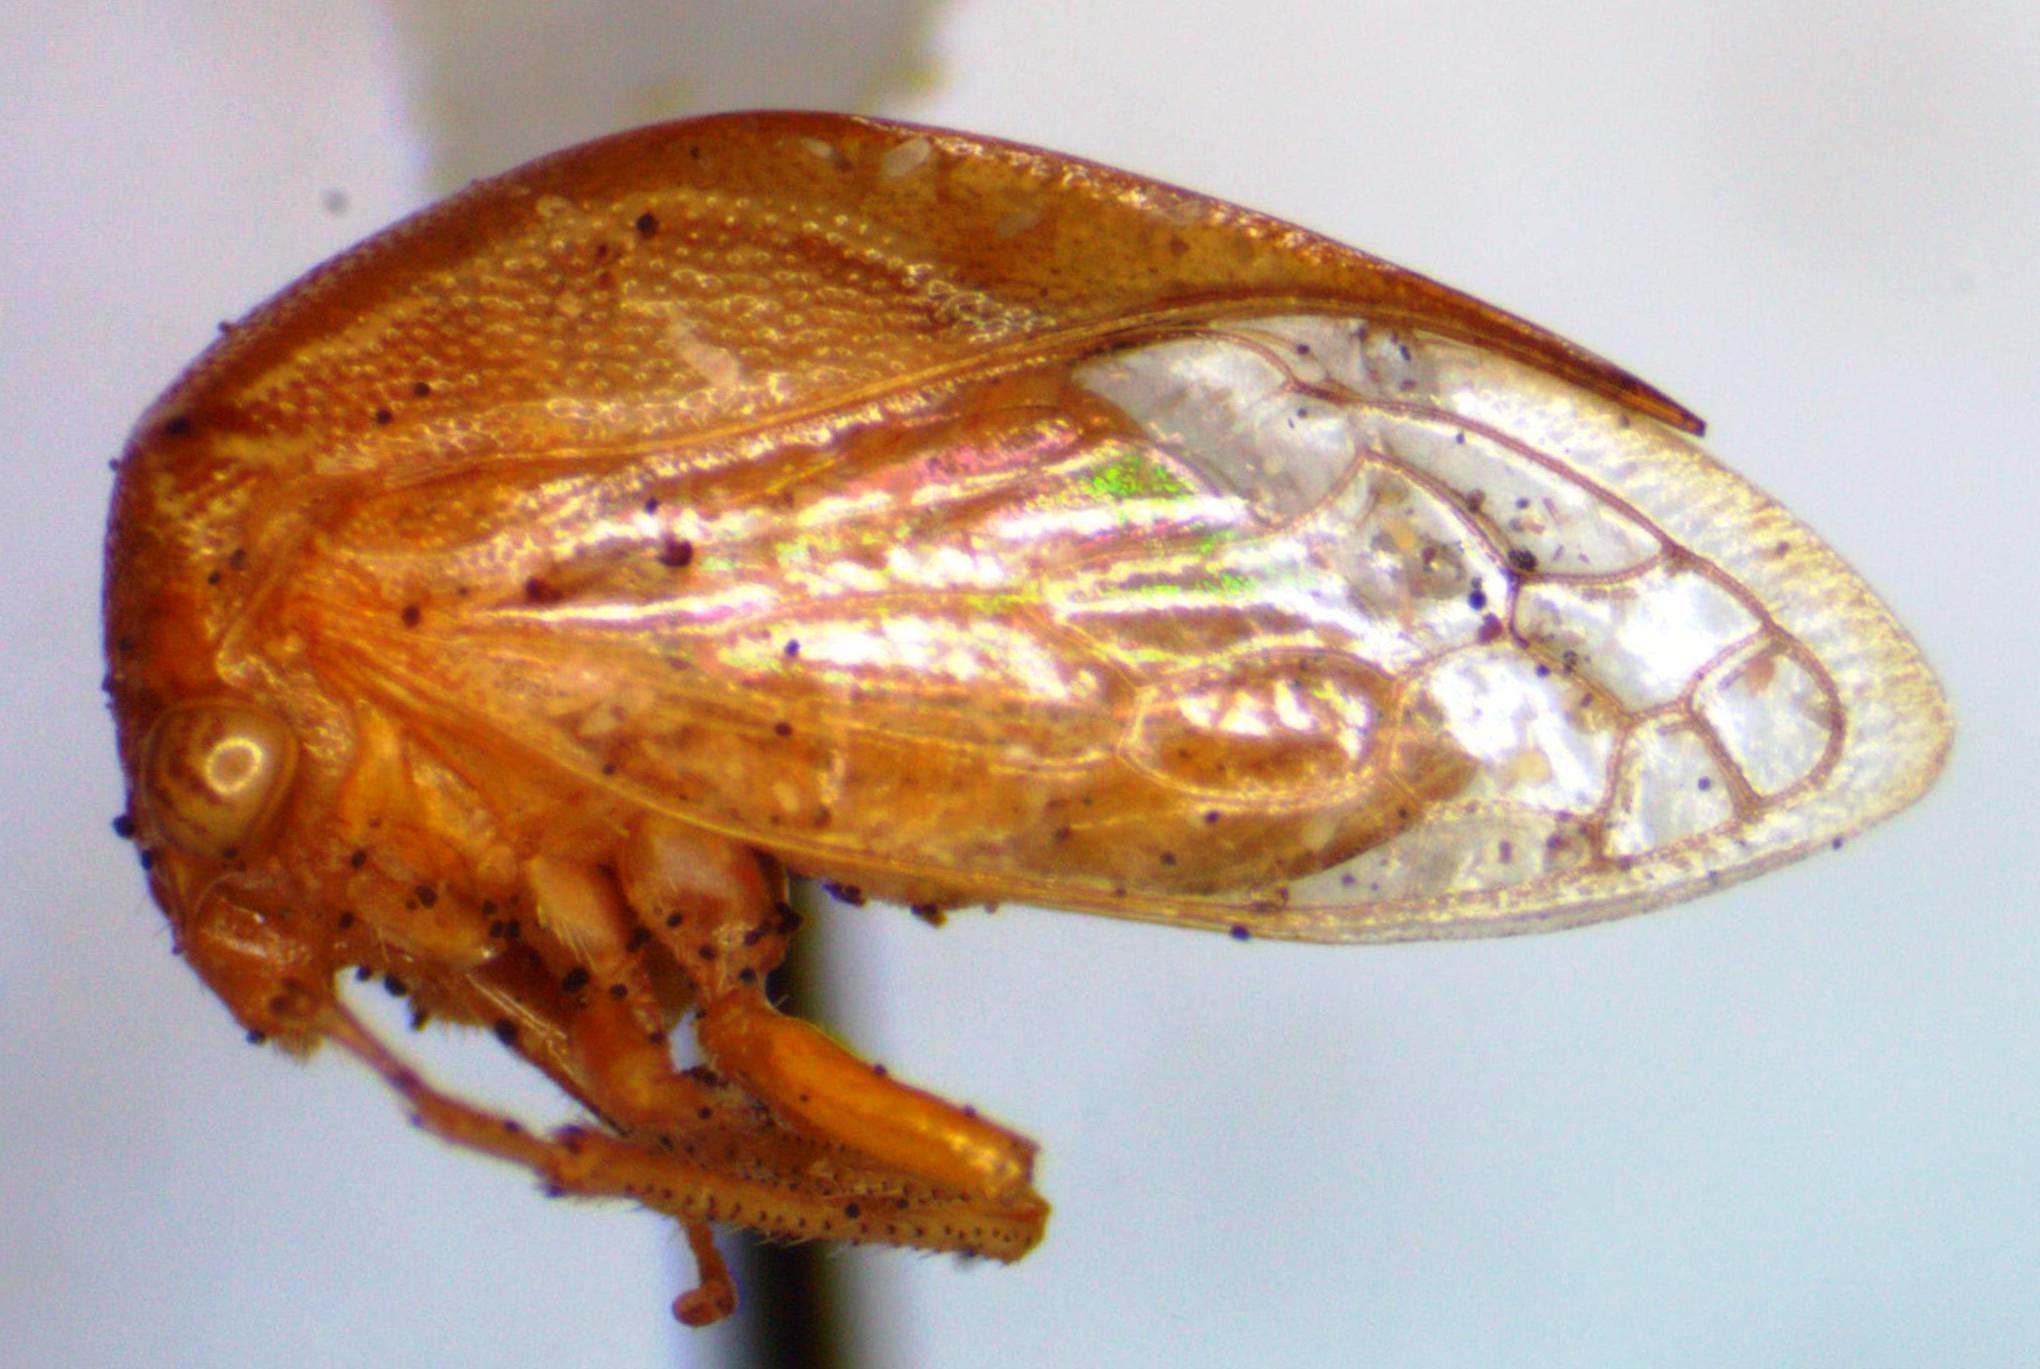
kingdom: Animalia
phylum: Arthropoda
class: Insecta
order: Hemiptera
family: Membracidae
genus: Stictolobus
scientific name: Stictolobus minor
